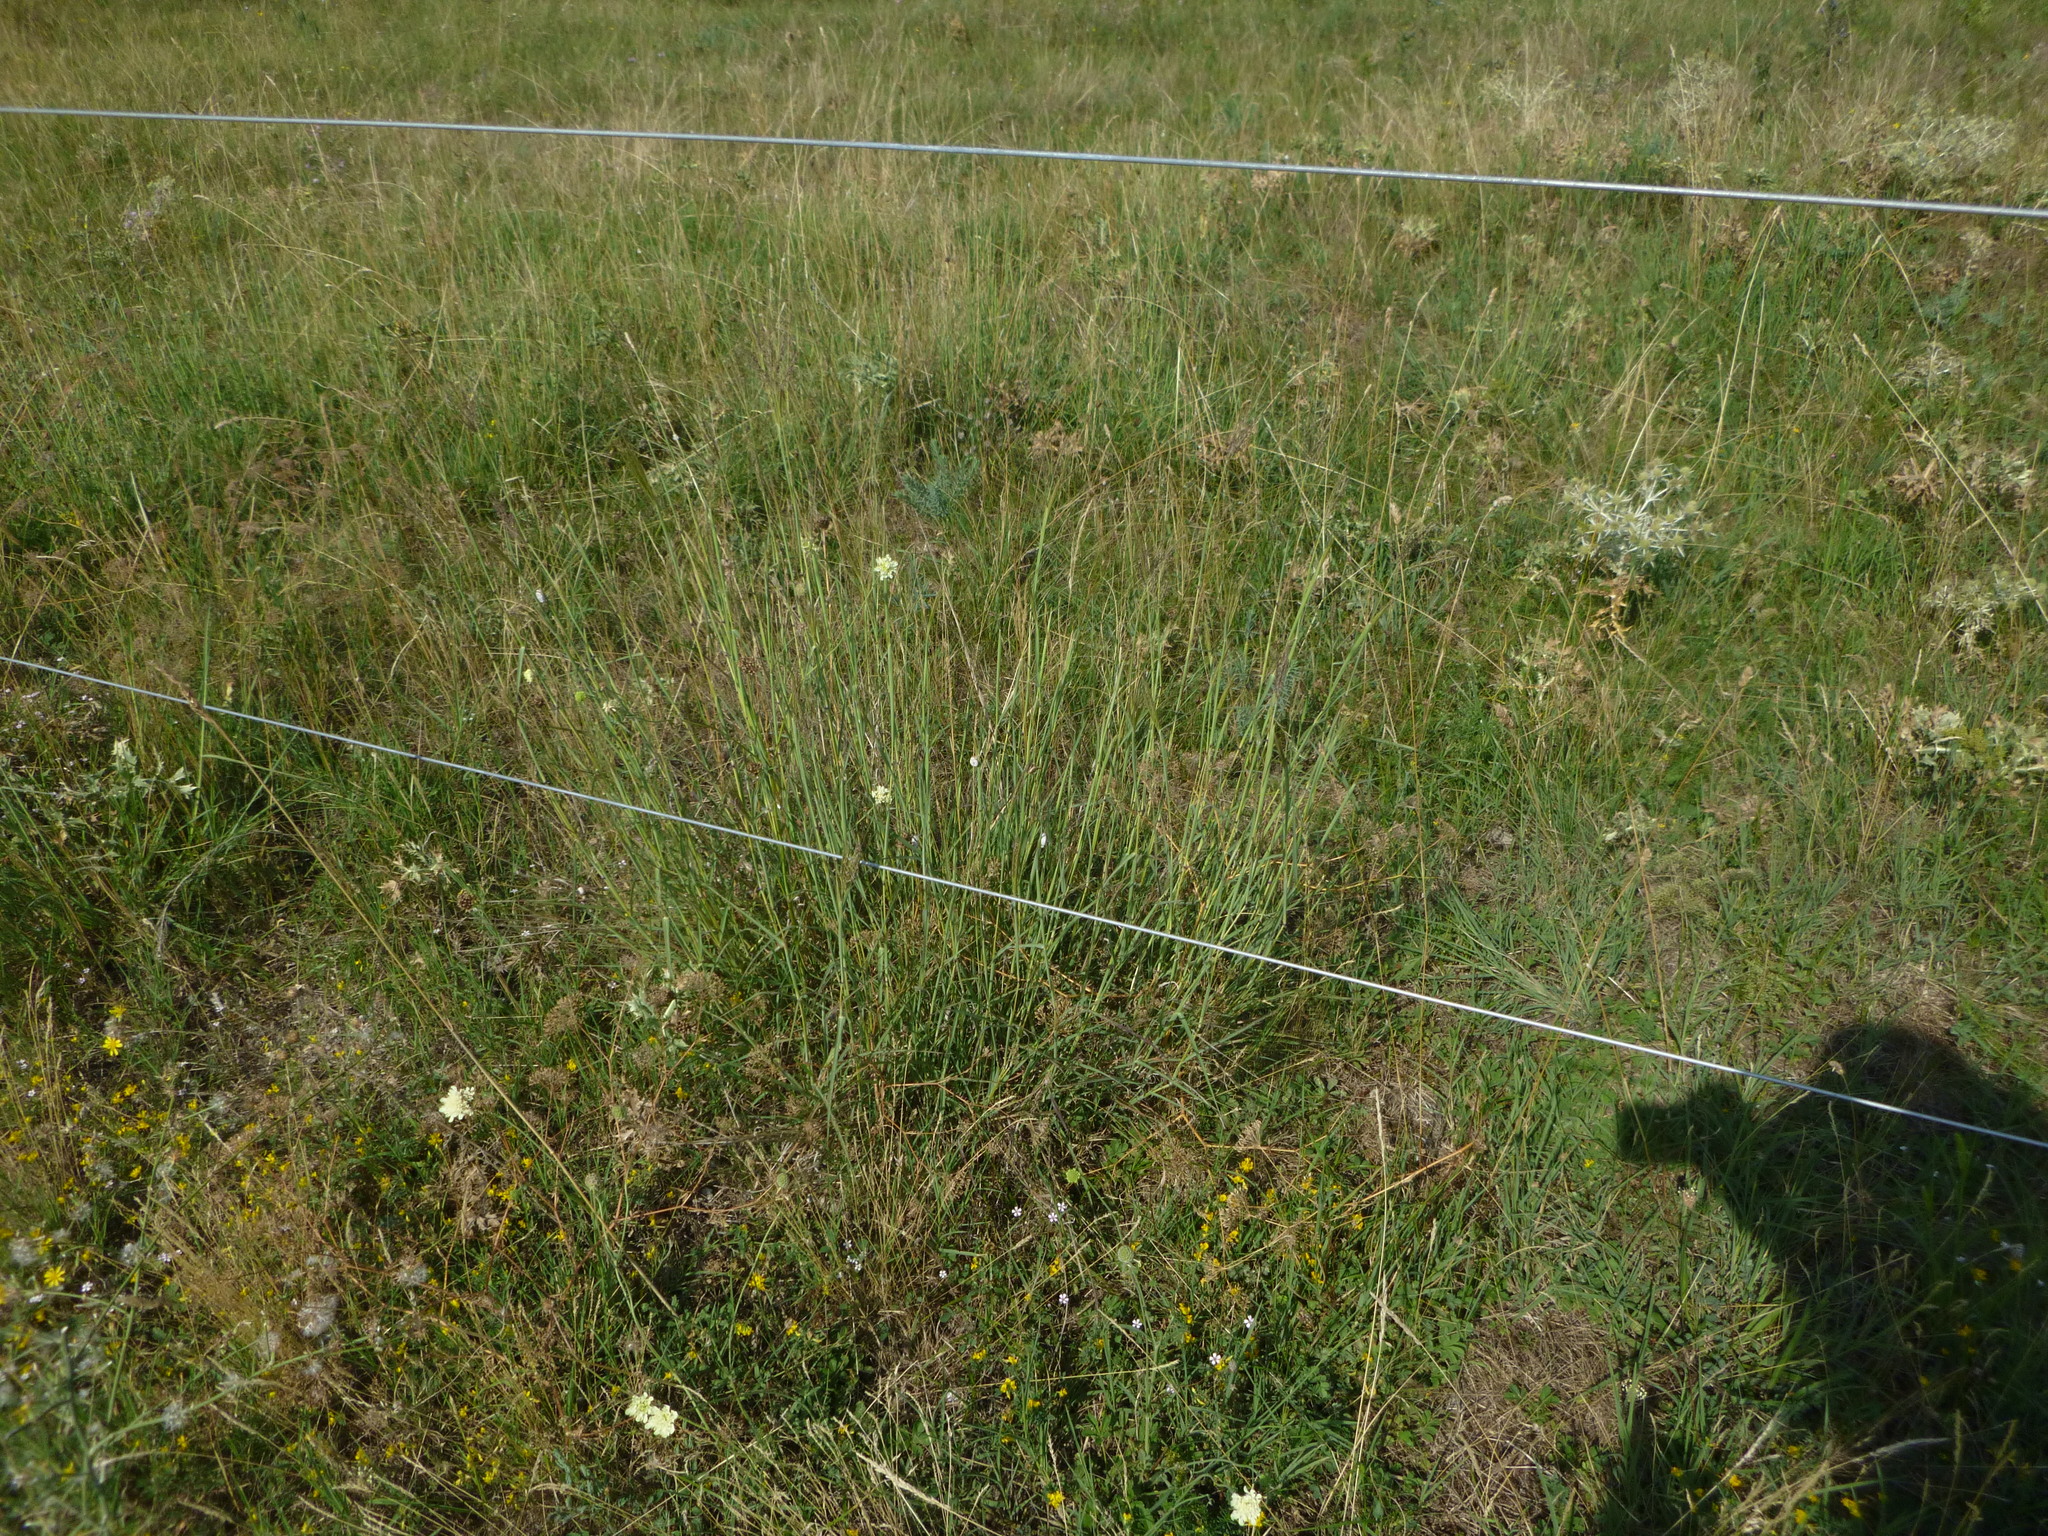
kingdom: Plantae
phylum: Tracheophyta
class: Liliopsida
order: Poales
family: Poaceae
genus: Bothriochloa
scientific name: Bothriochloa ischaemum
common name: Yellow bluestem
